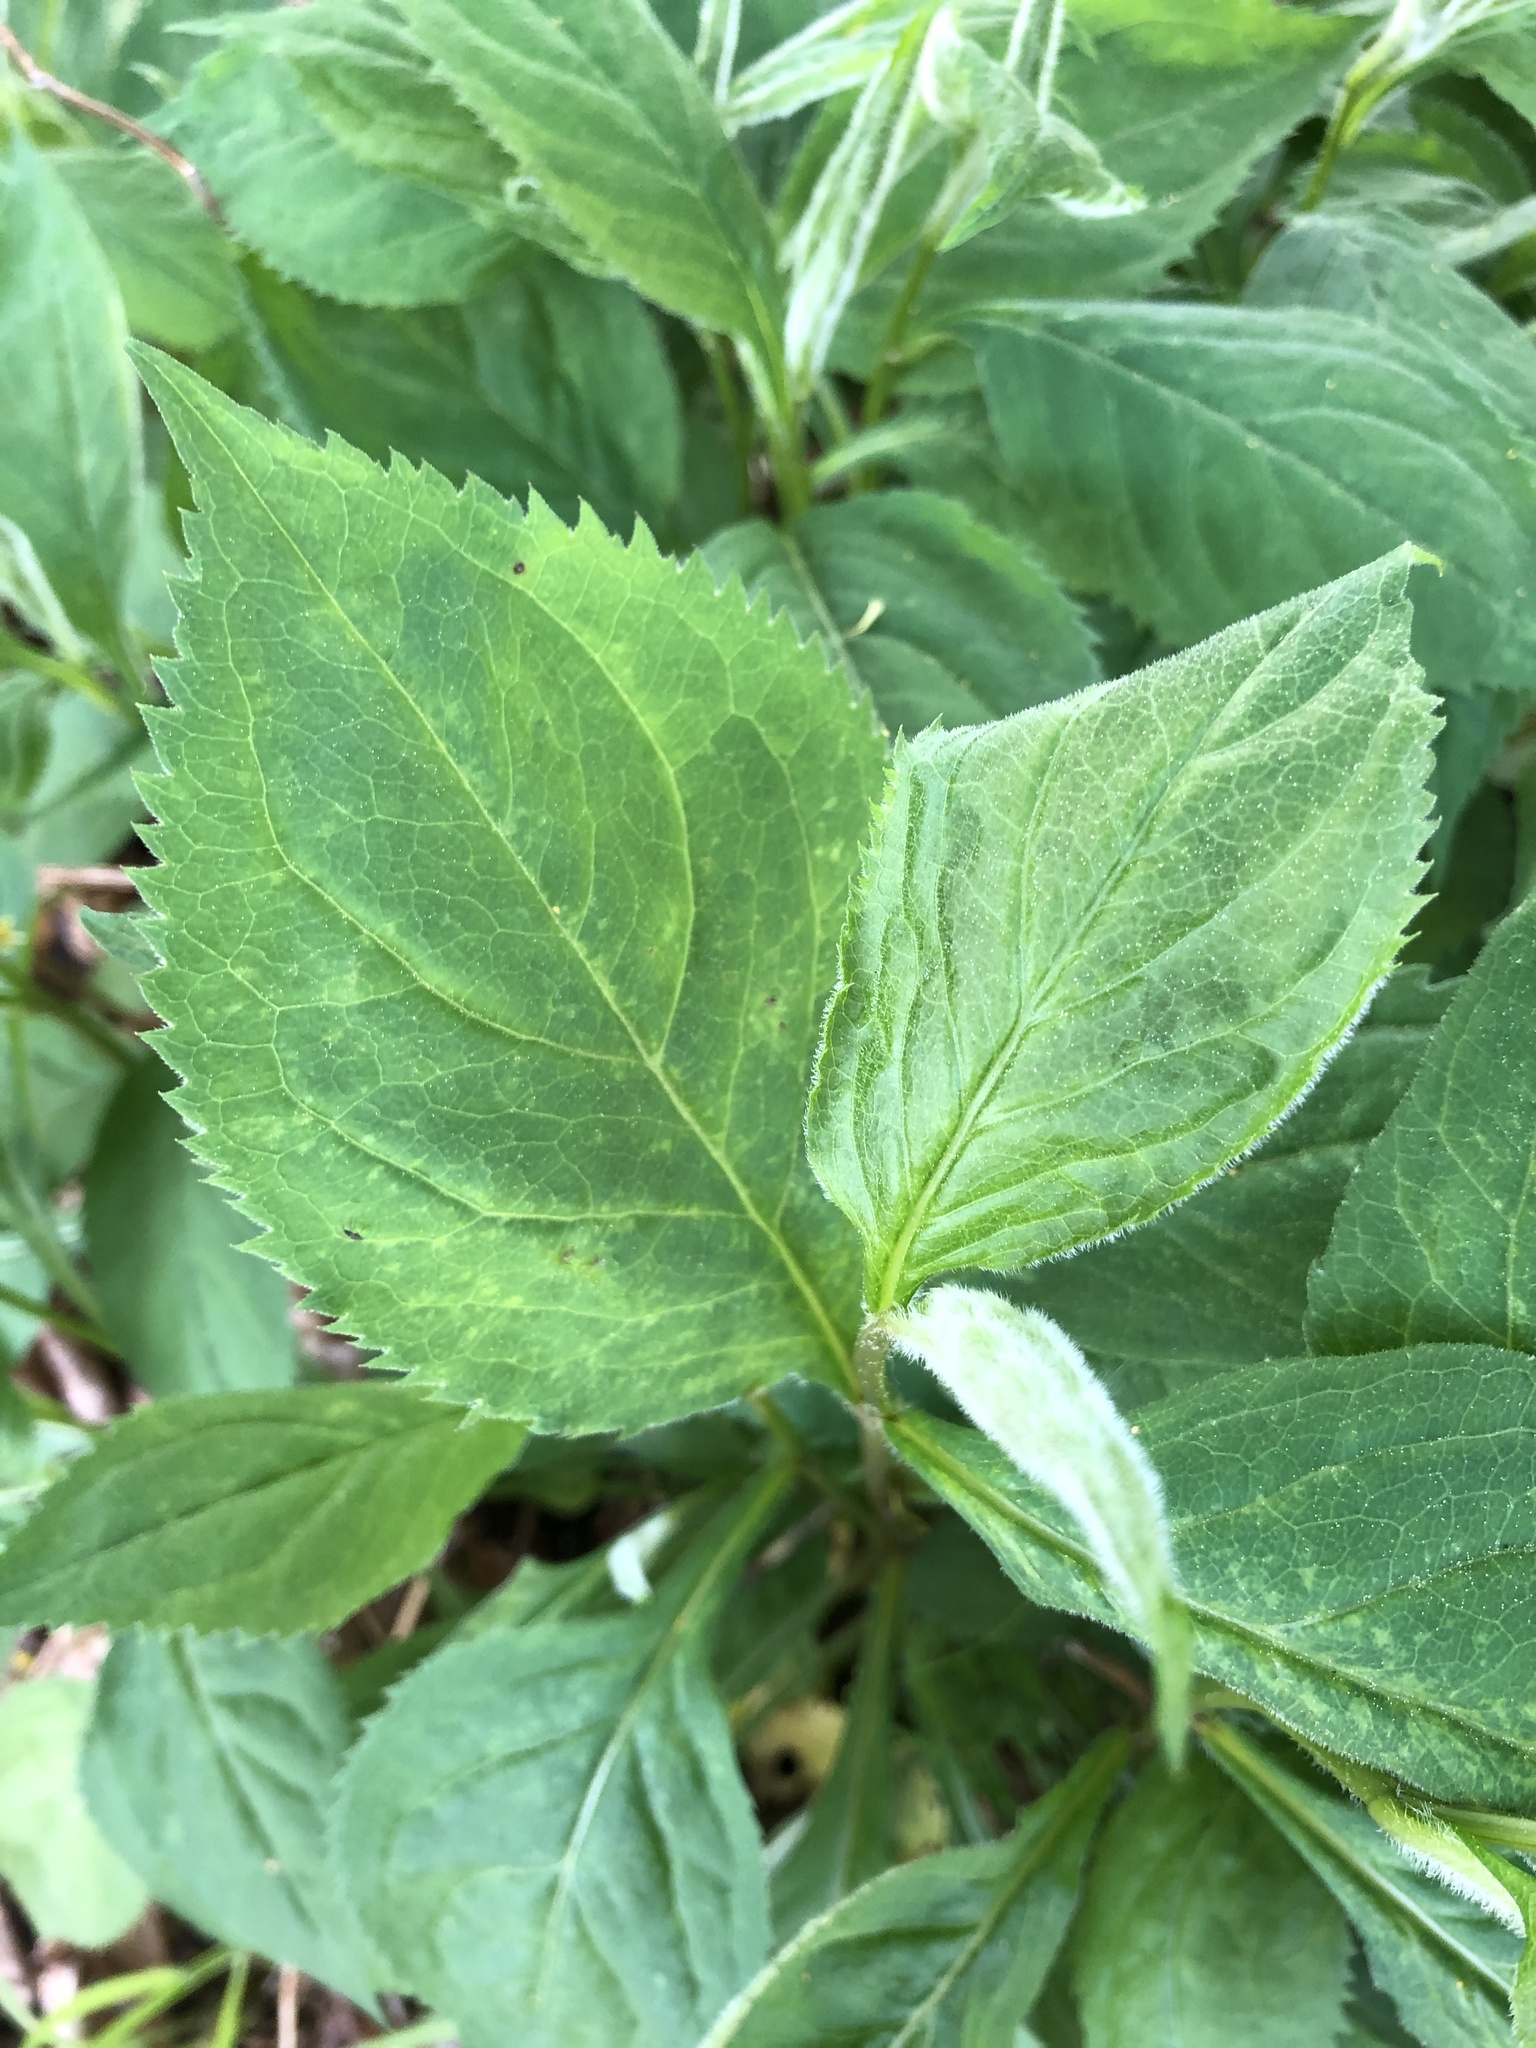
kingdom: Plantae
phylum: Tracheophyta
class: Magnoliopsida
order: Asterales
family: Asteraceae
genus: Solidago
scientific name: Solidago flexicaulis
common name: Zig-zag goldenrod
